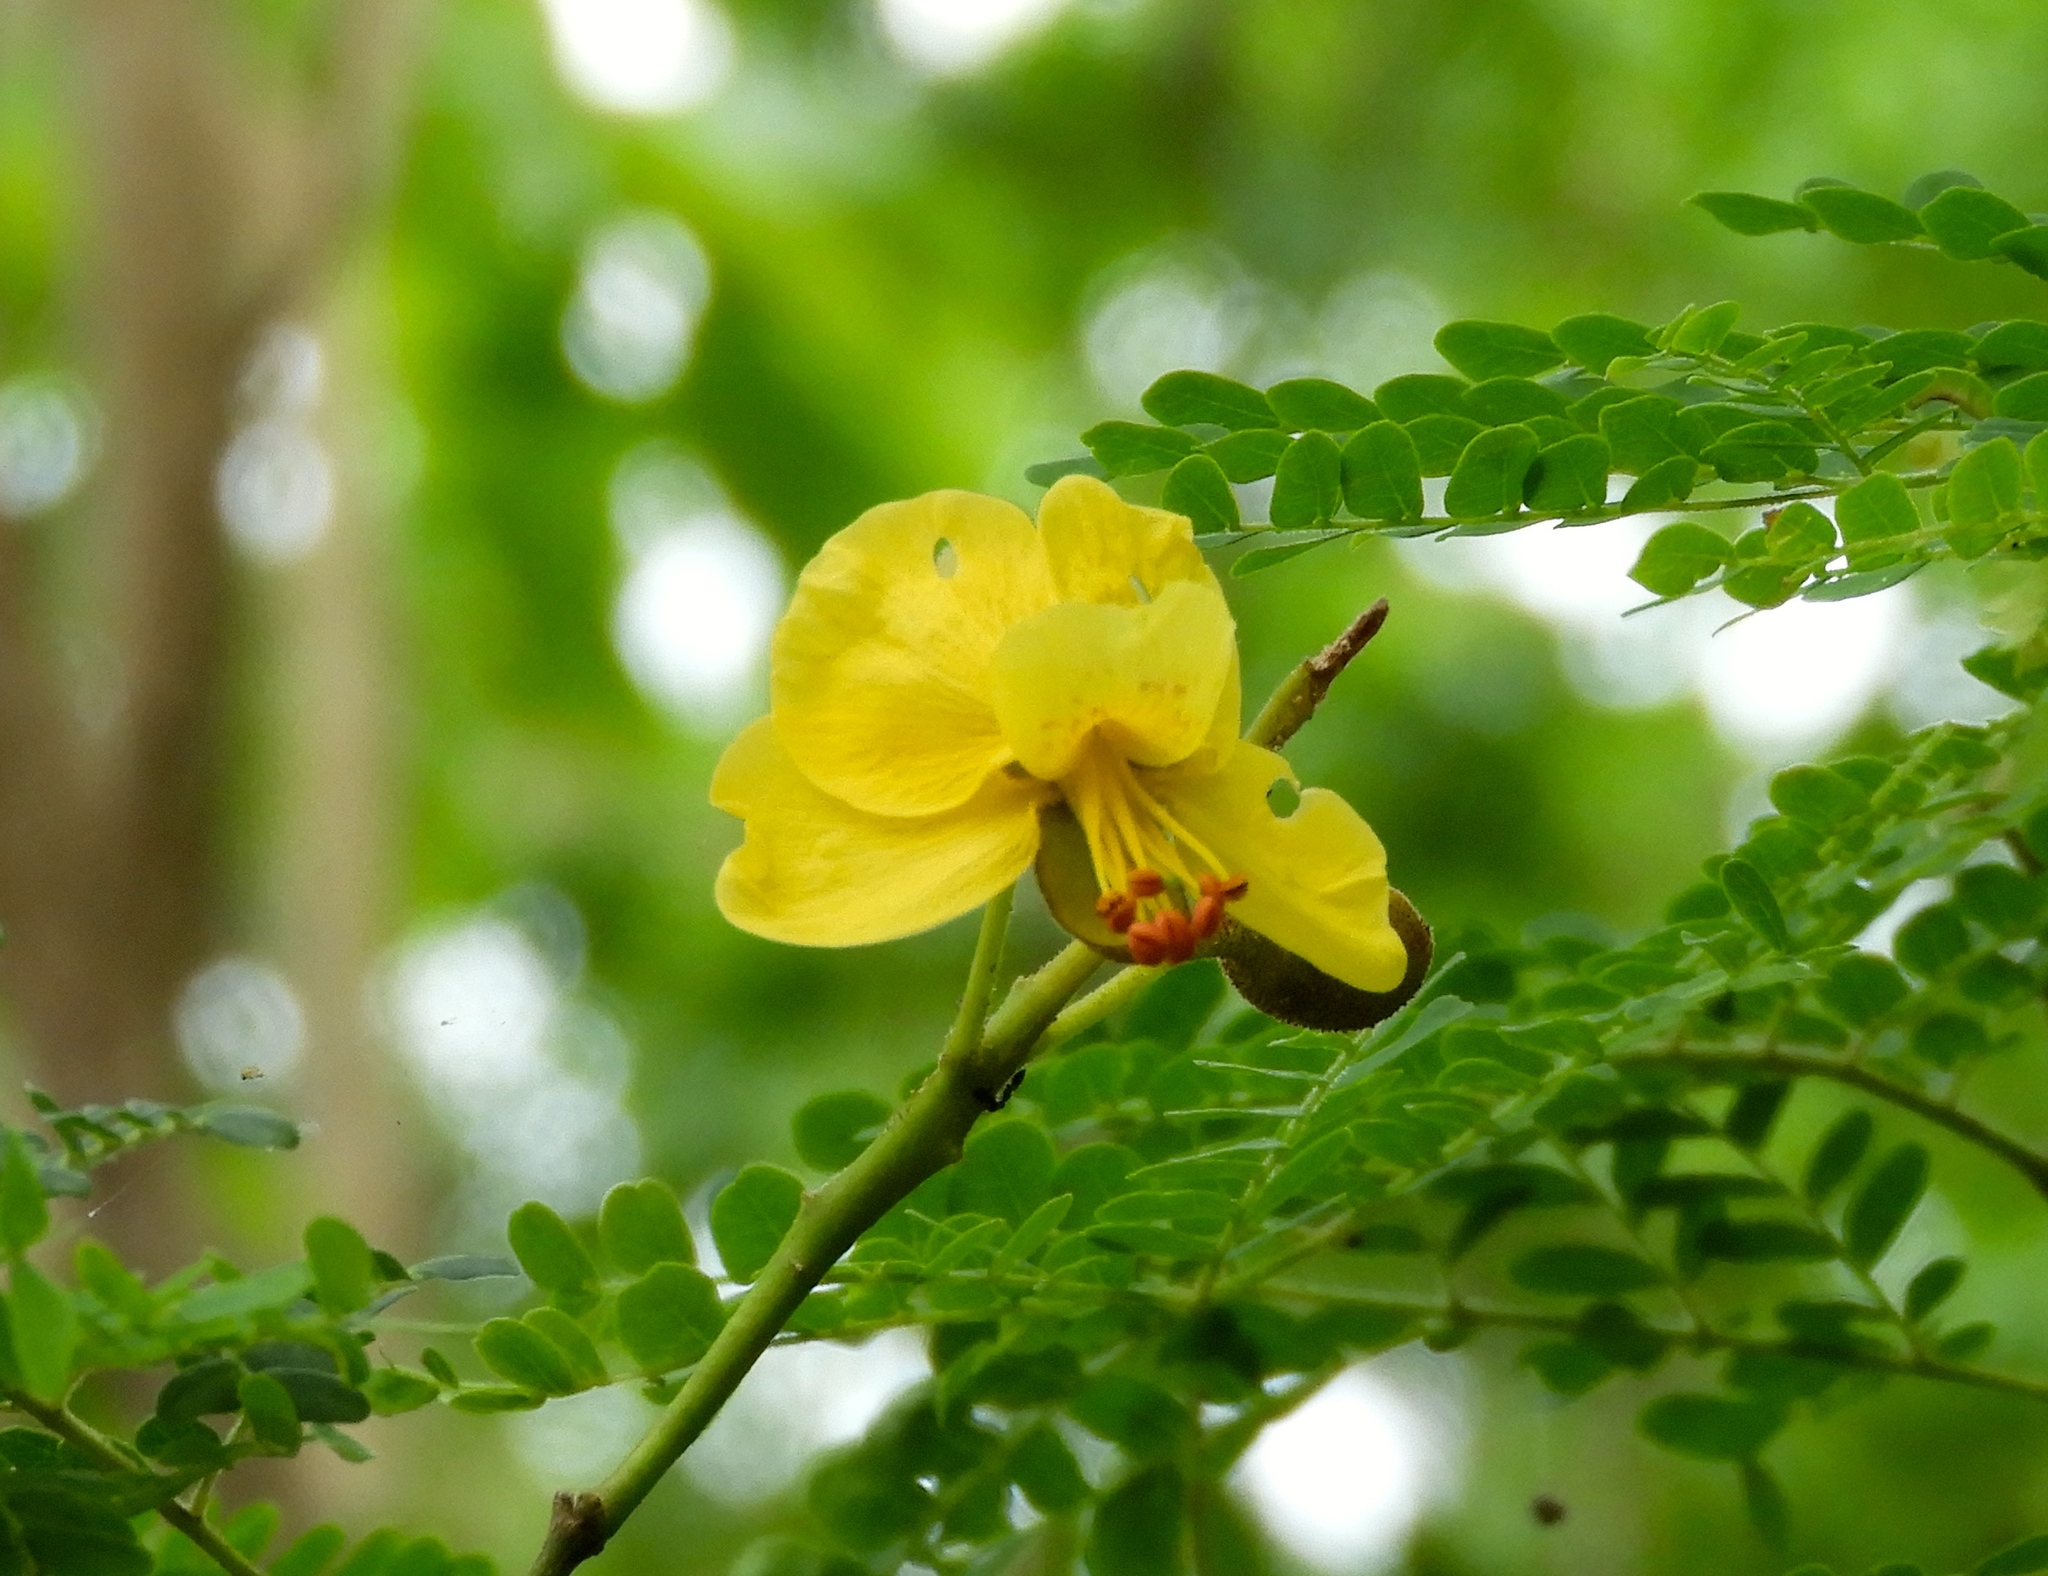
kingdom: Plantae
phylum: Tracheophyta
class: Magnoliopsida
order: Fabales
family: Fabaceae
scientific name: Fabaceae
